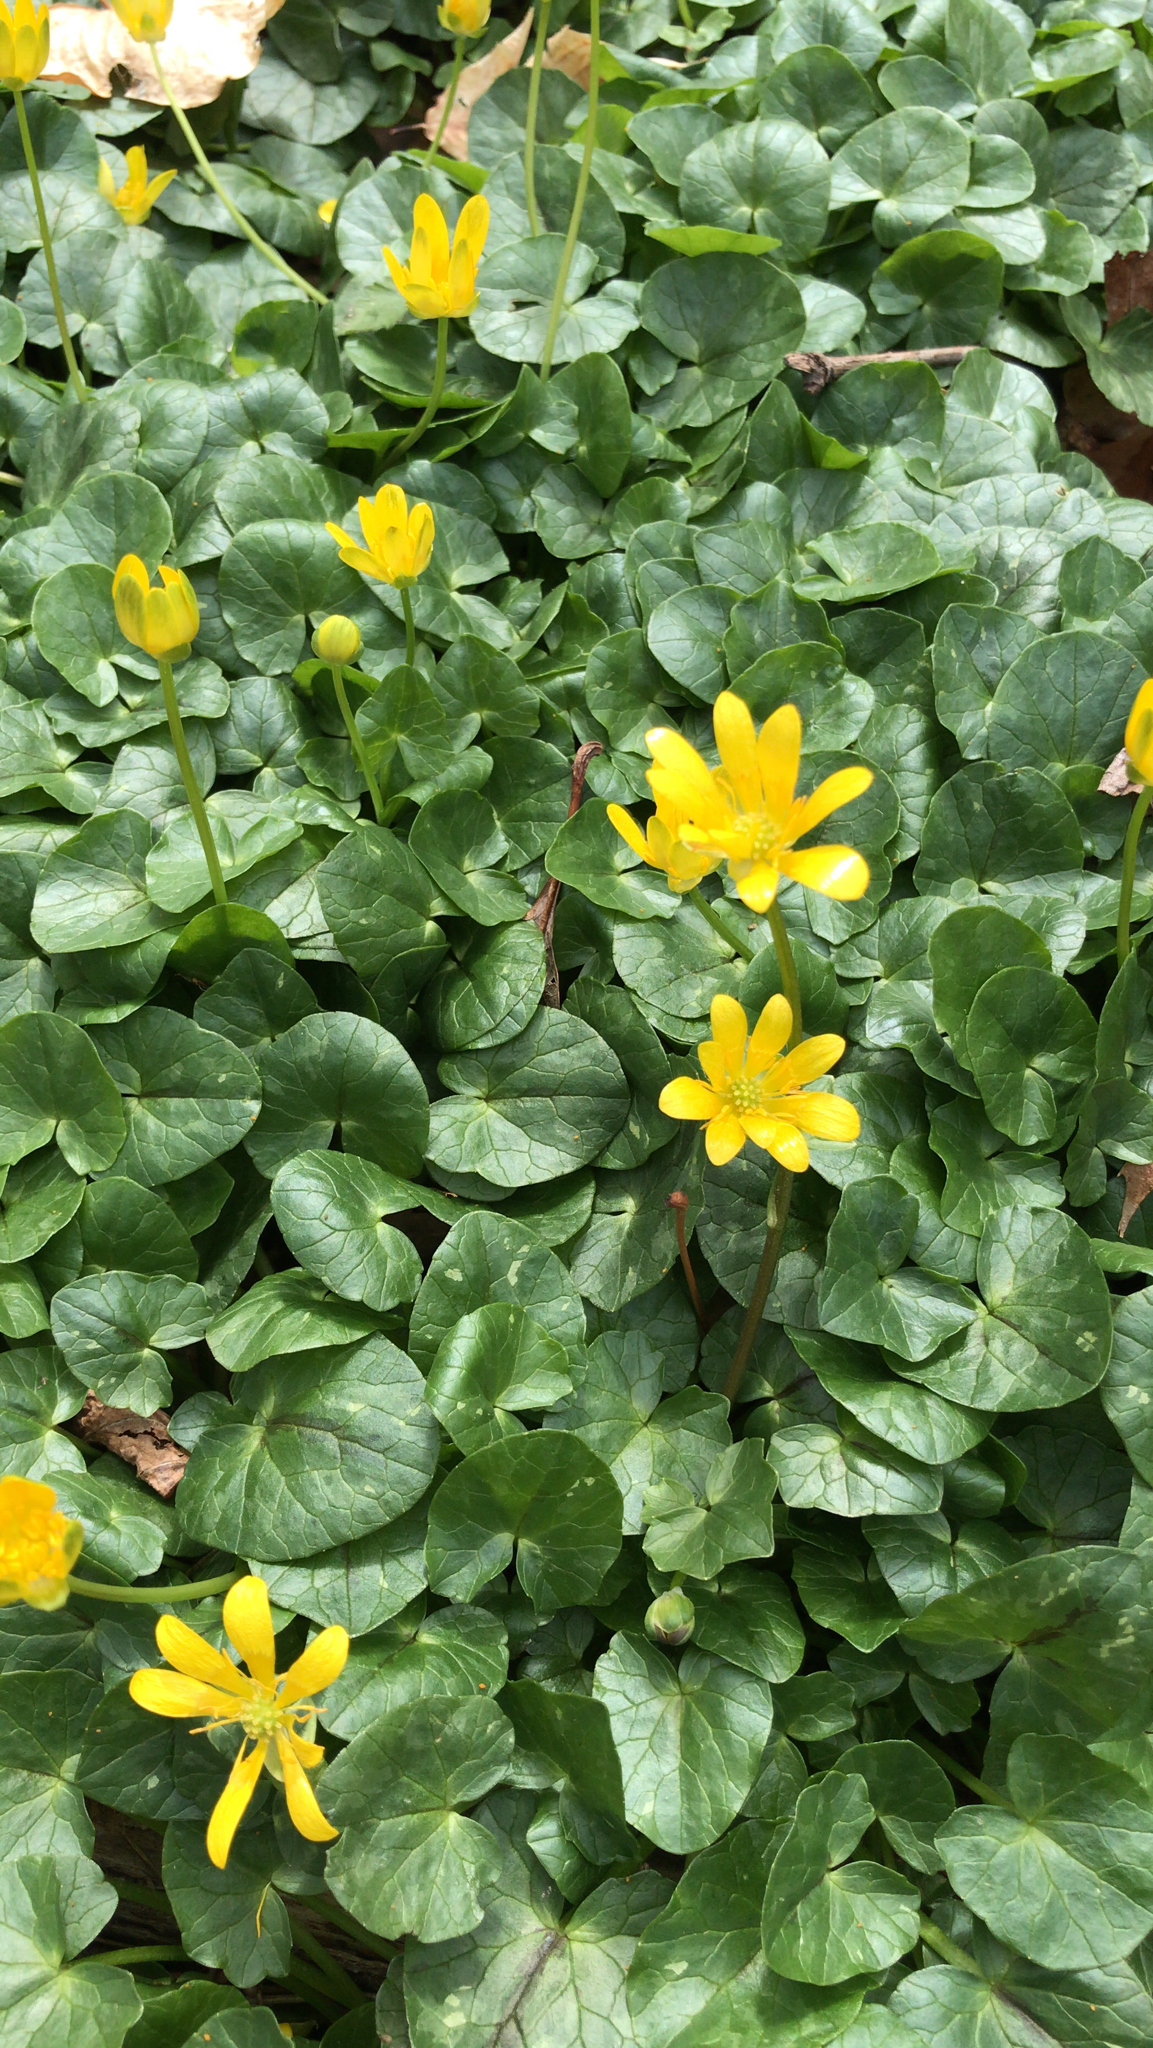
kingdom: Plantae
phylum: Tracheophyta
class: Magnoliopsida
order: Ranunculales
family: Ranunculaceae
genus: Ficaria
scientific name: Ficaria verna
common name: Lesser celandine
